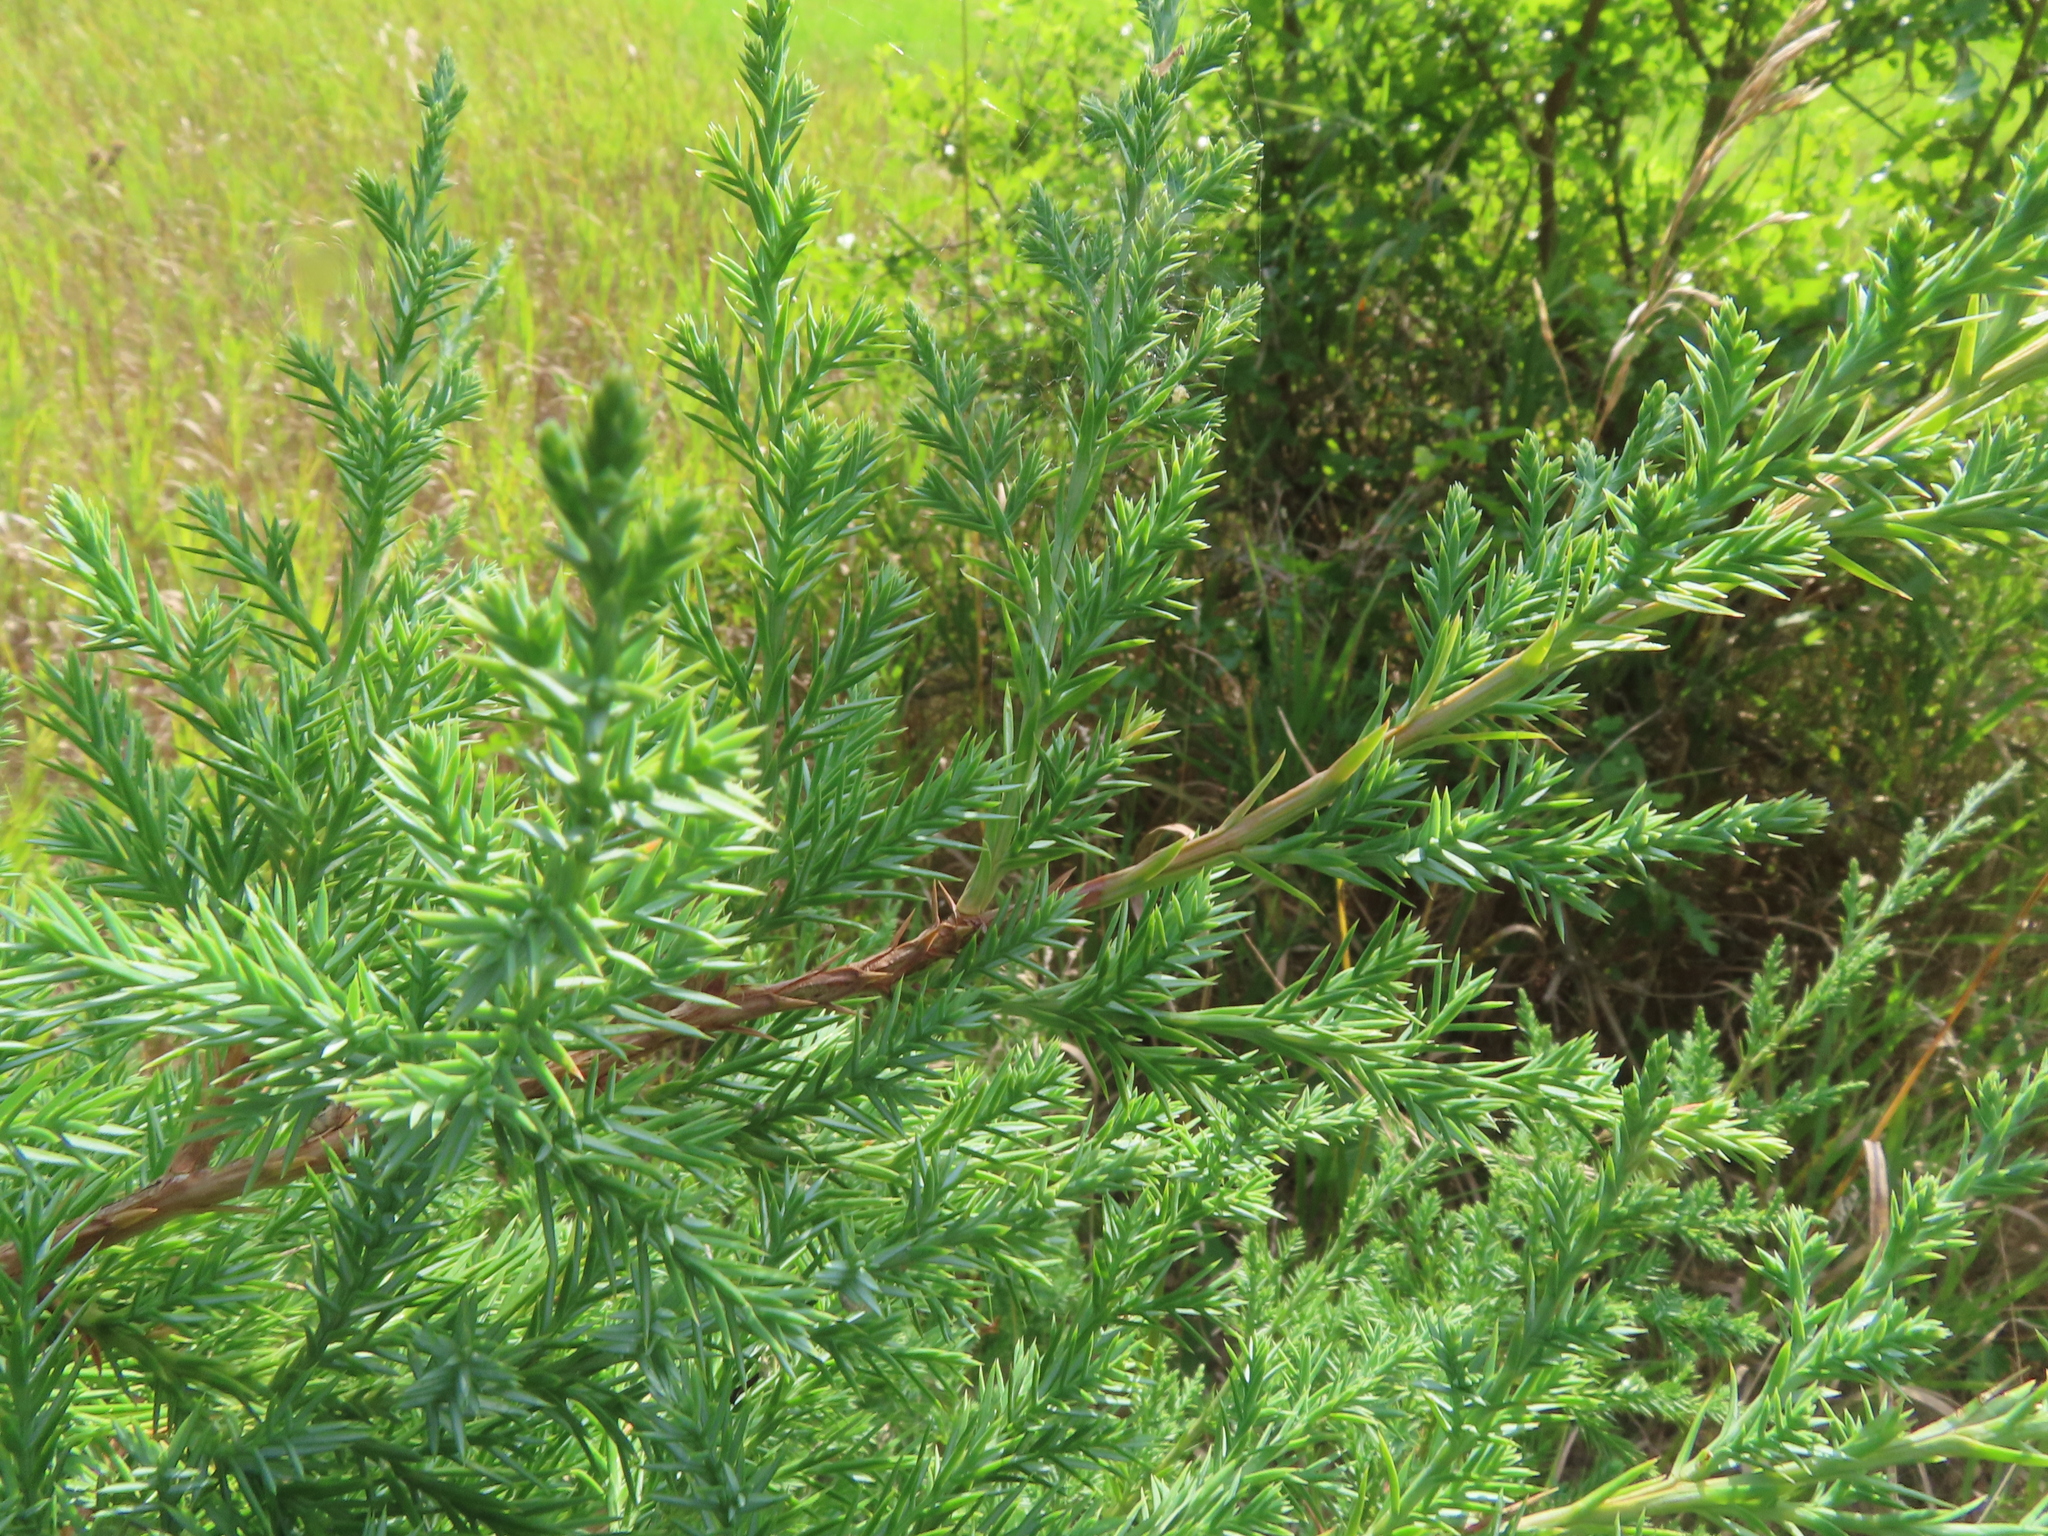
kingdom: Plantae
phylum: Tracheophyta
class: Pinopsida
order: Pinales
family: Cupressaceae
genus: Juniperus
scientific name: Juniperus virginiana
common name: Red juniper
